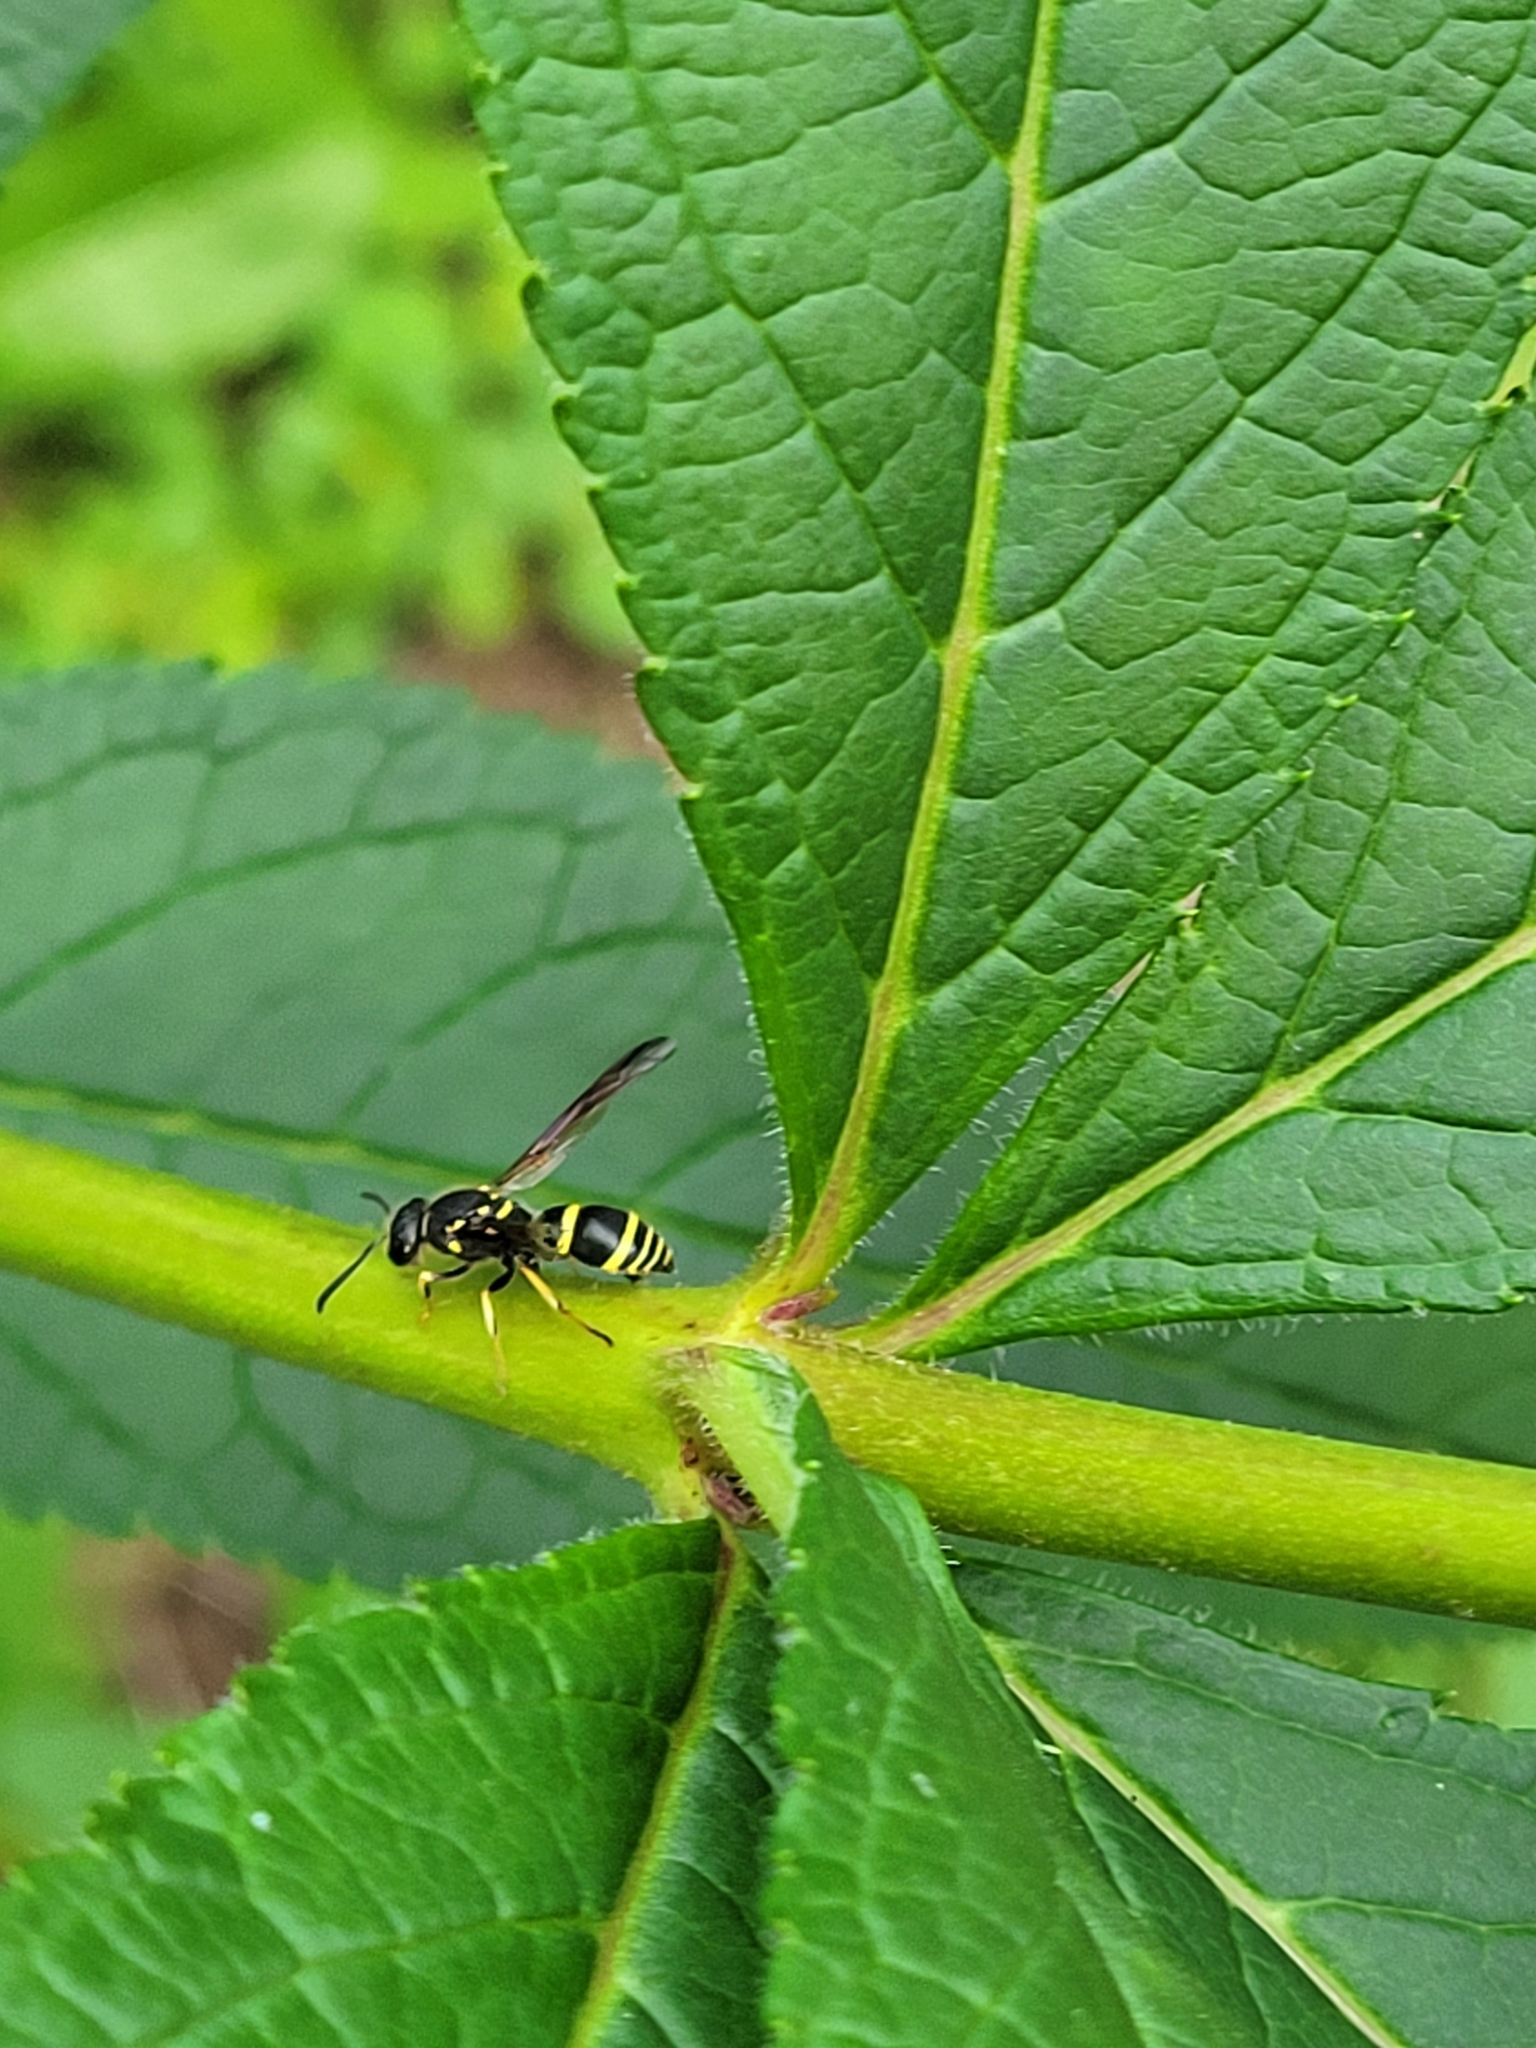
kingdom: Animalia
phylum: Arthropoda
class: Insecta
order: Hymenoptera
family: Vespidae
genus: Ancistrocerus
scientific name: Ancistrocerus adiabatus
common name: Bramble mason wasp
